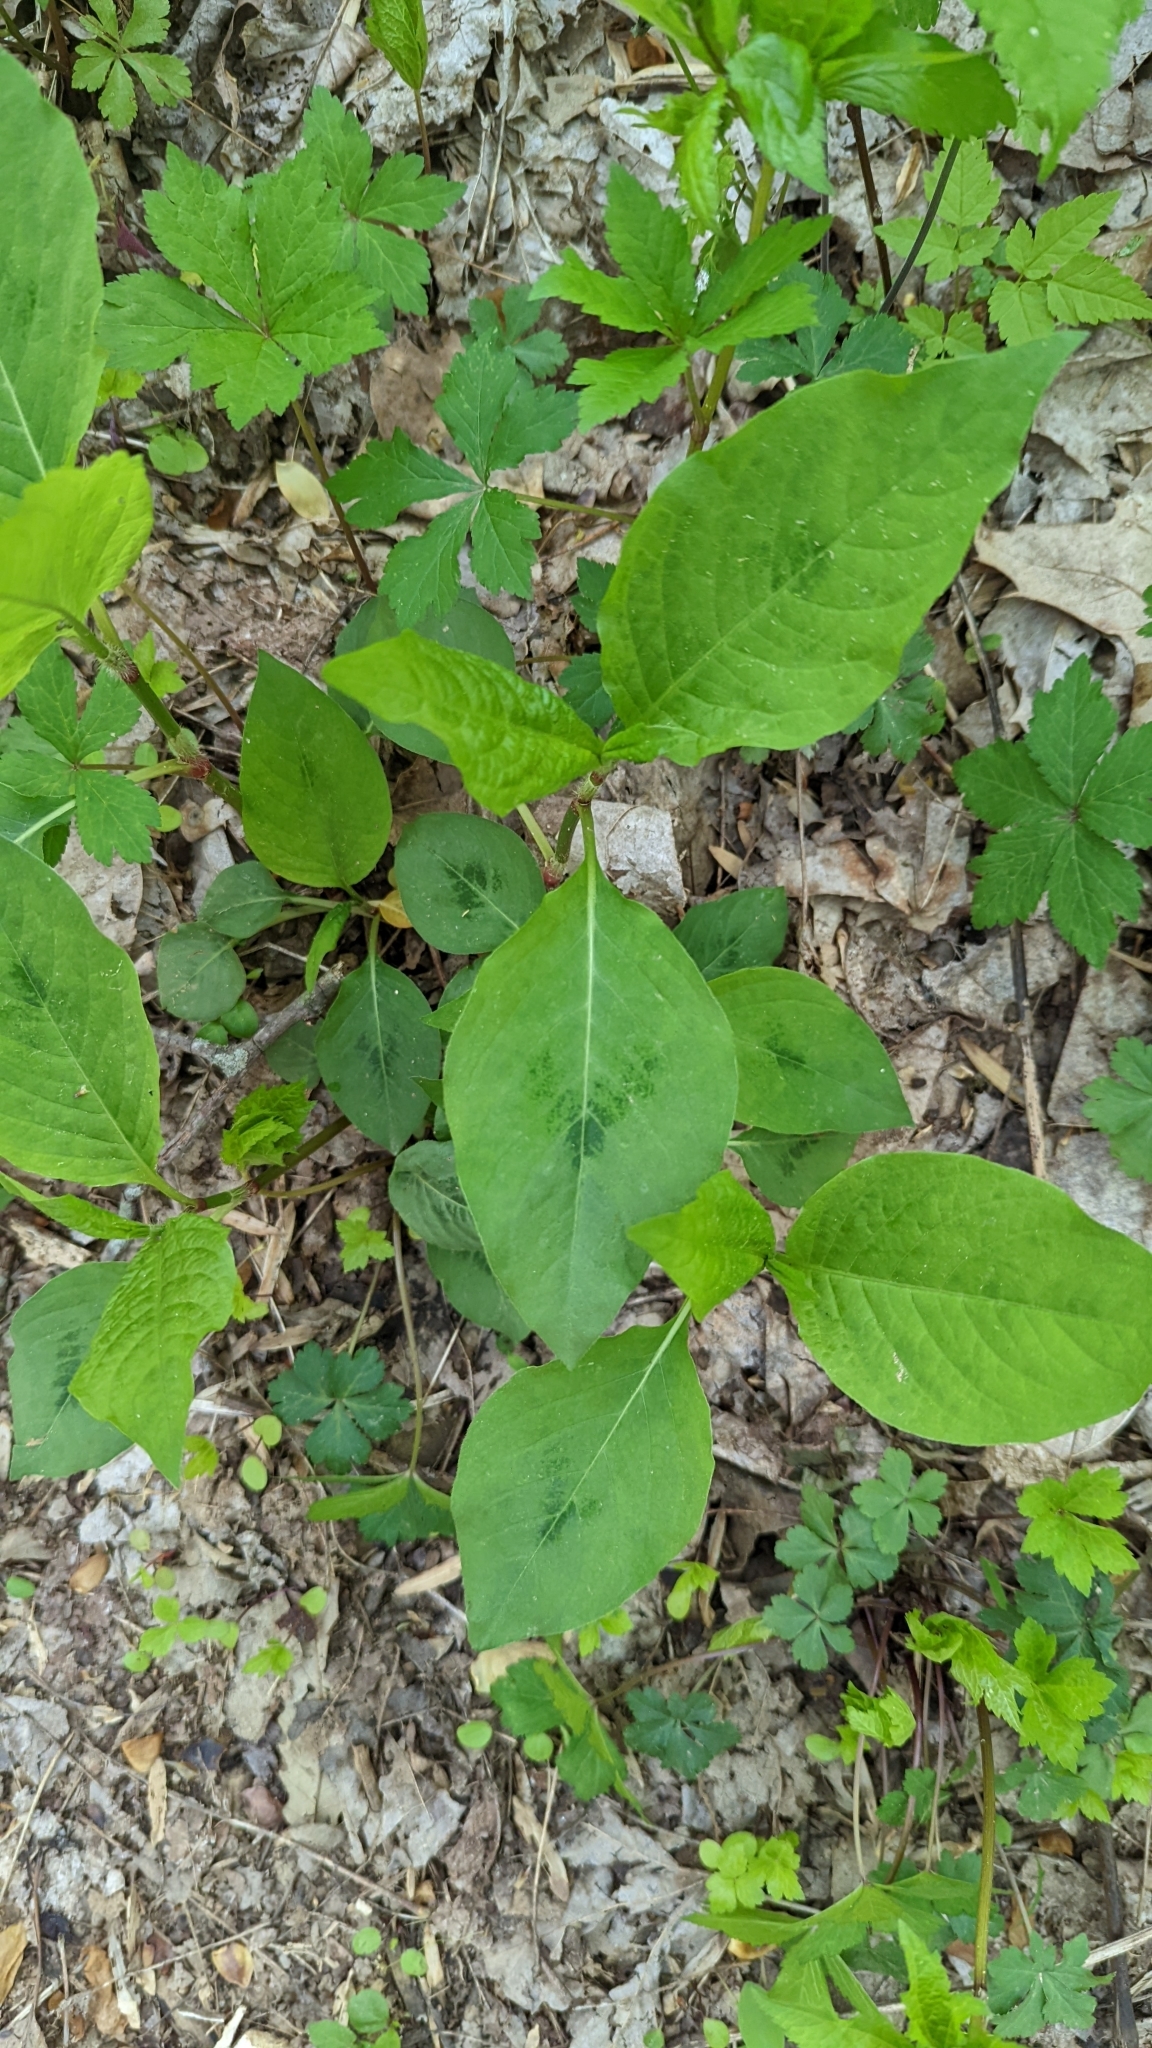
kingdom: Plantae
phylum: Tracheophyta
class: Magnoliopsida
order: Caryophyllales
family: Polygonaceae
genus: Persicaria
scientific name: Persicaria virginiana
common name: Jumpseed
